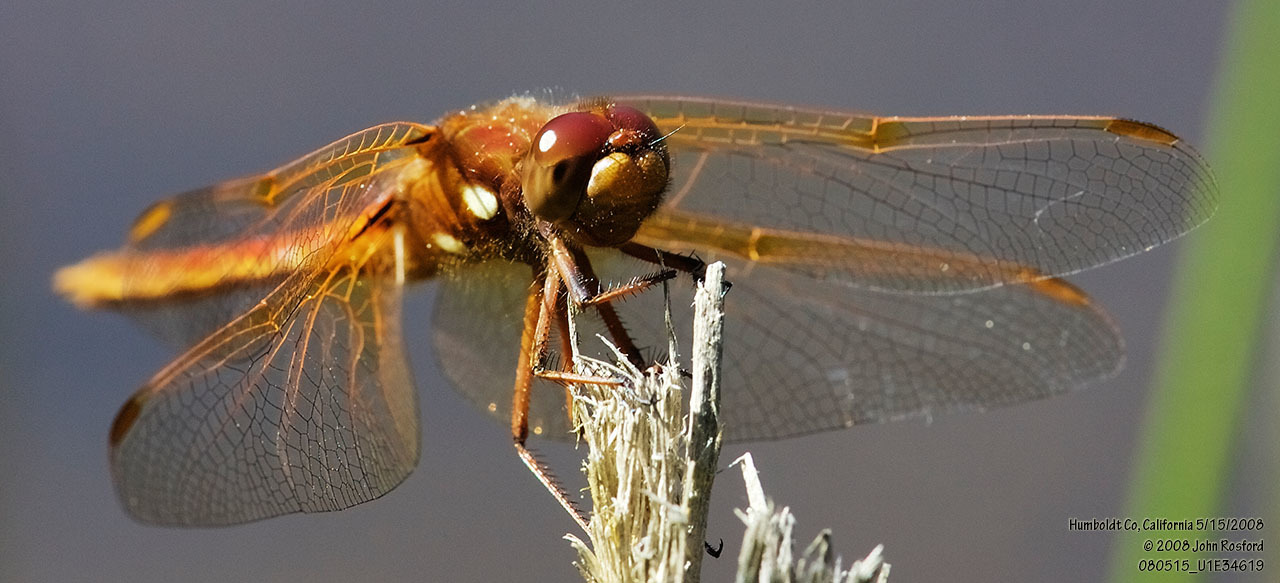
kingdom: Animalia
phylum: Arthropoda
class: Insecta
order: Odonata
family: Libellulidae
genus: Sympetrum
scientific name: Sympetrum illotum
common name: Cardinal meadowhawk
